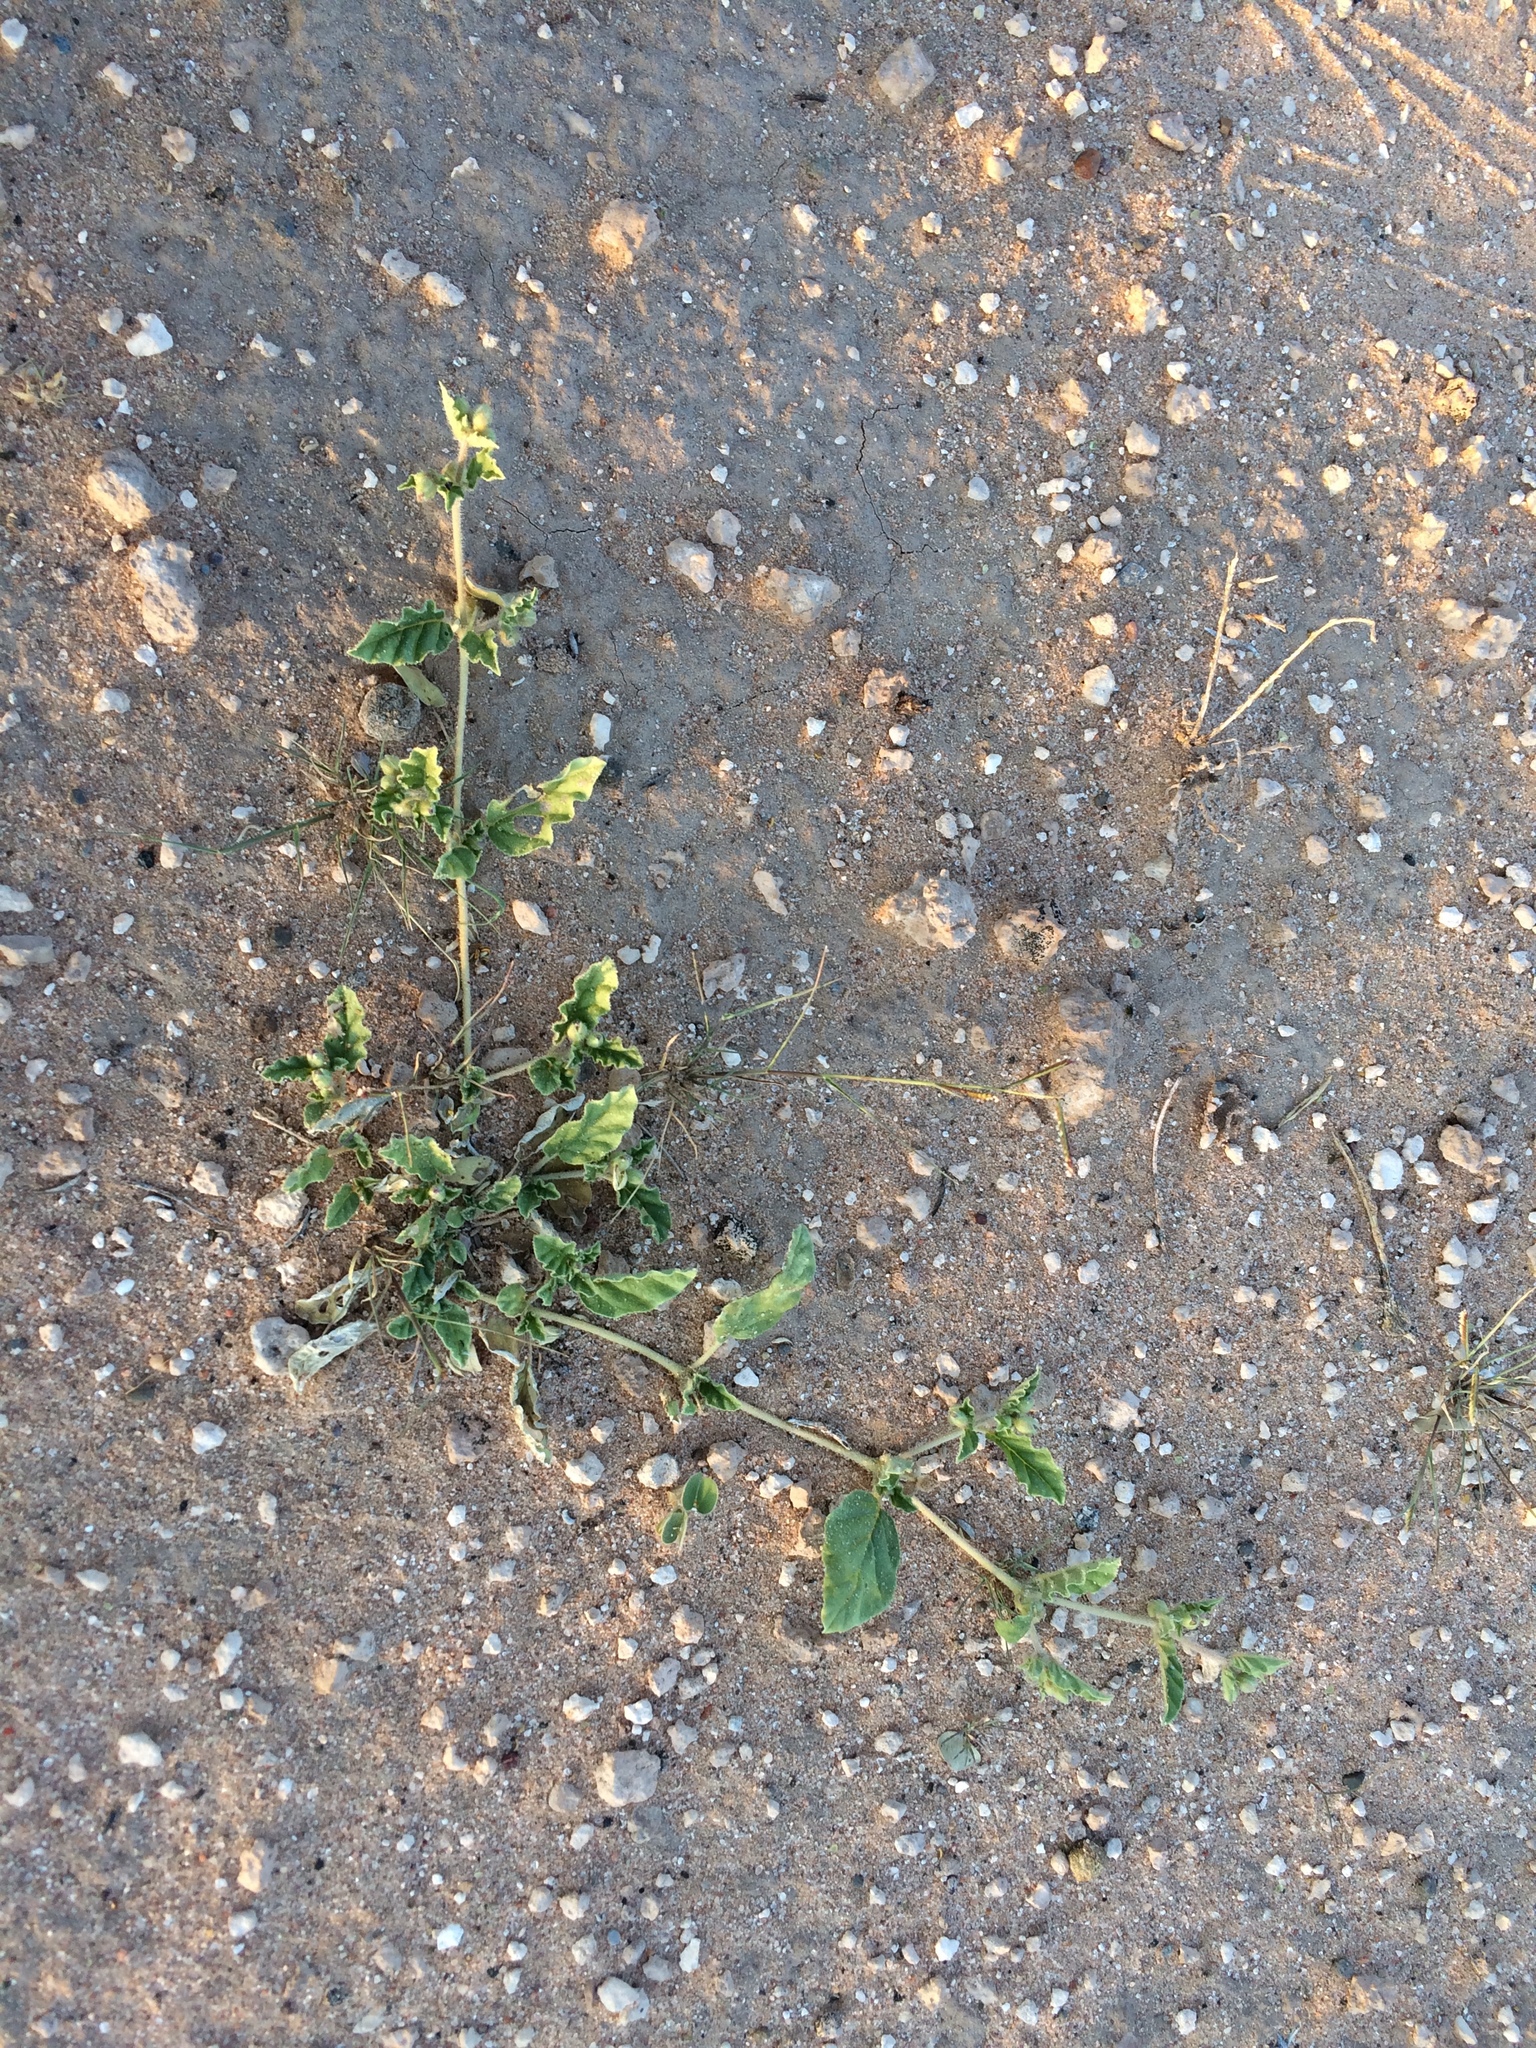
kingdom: Plantae
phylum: Tracheophyta
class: Magnoliopsida
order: Caryophyllales
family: Nyctaginaceae
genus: Allionia
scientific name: Allionia incarnata
